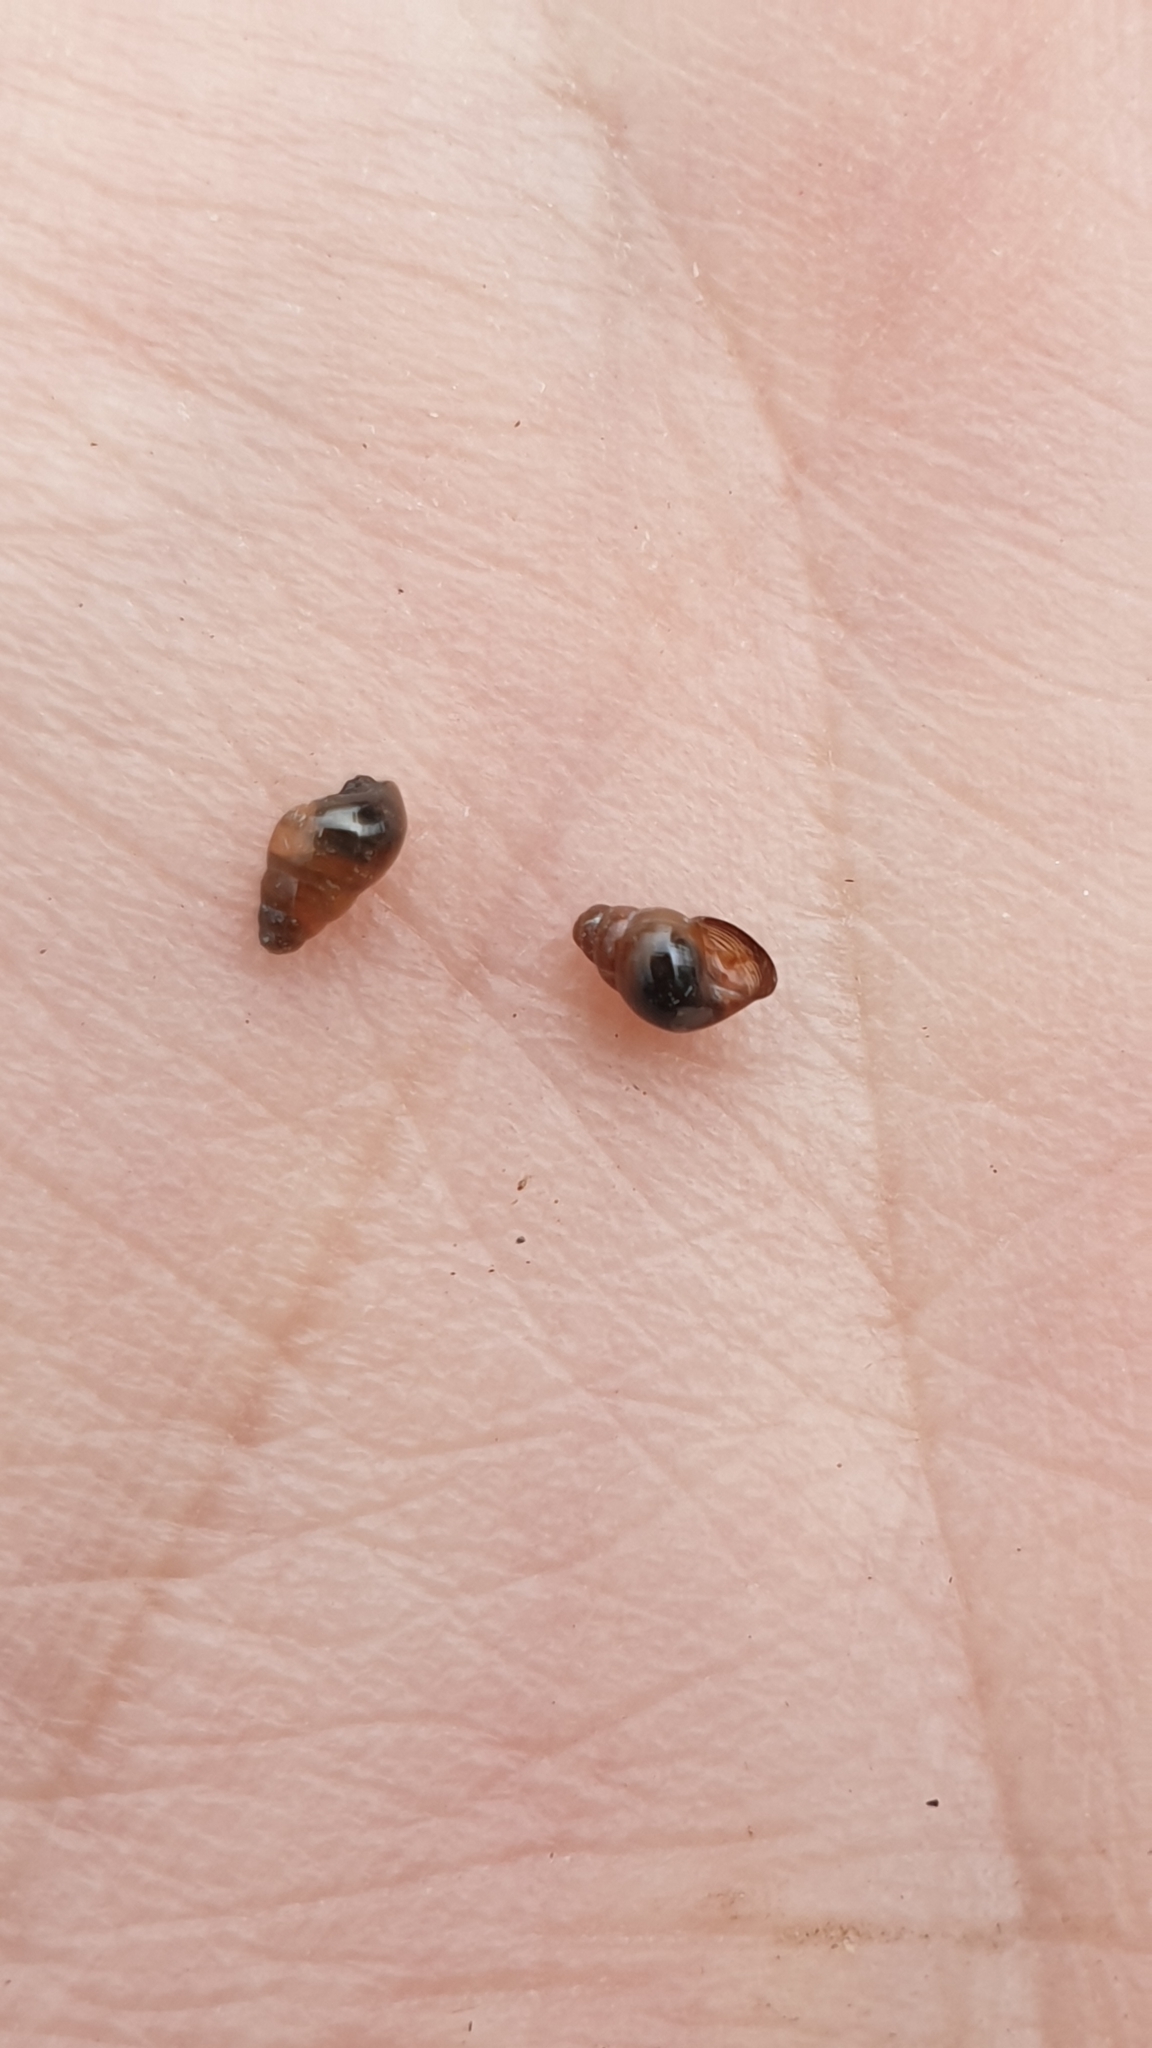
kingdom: Animalia
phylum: Mollusca
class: Gastropoda
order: Stylommatophora
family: Cochlicopidae
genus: Cochlicopa
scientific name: Cochlicopa lubrica
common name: Glossy pillar snail
